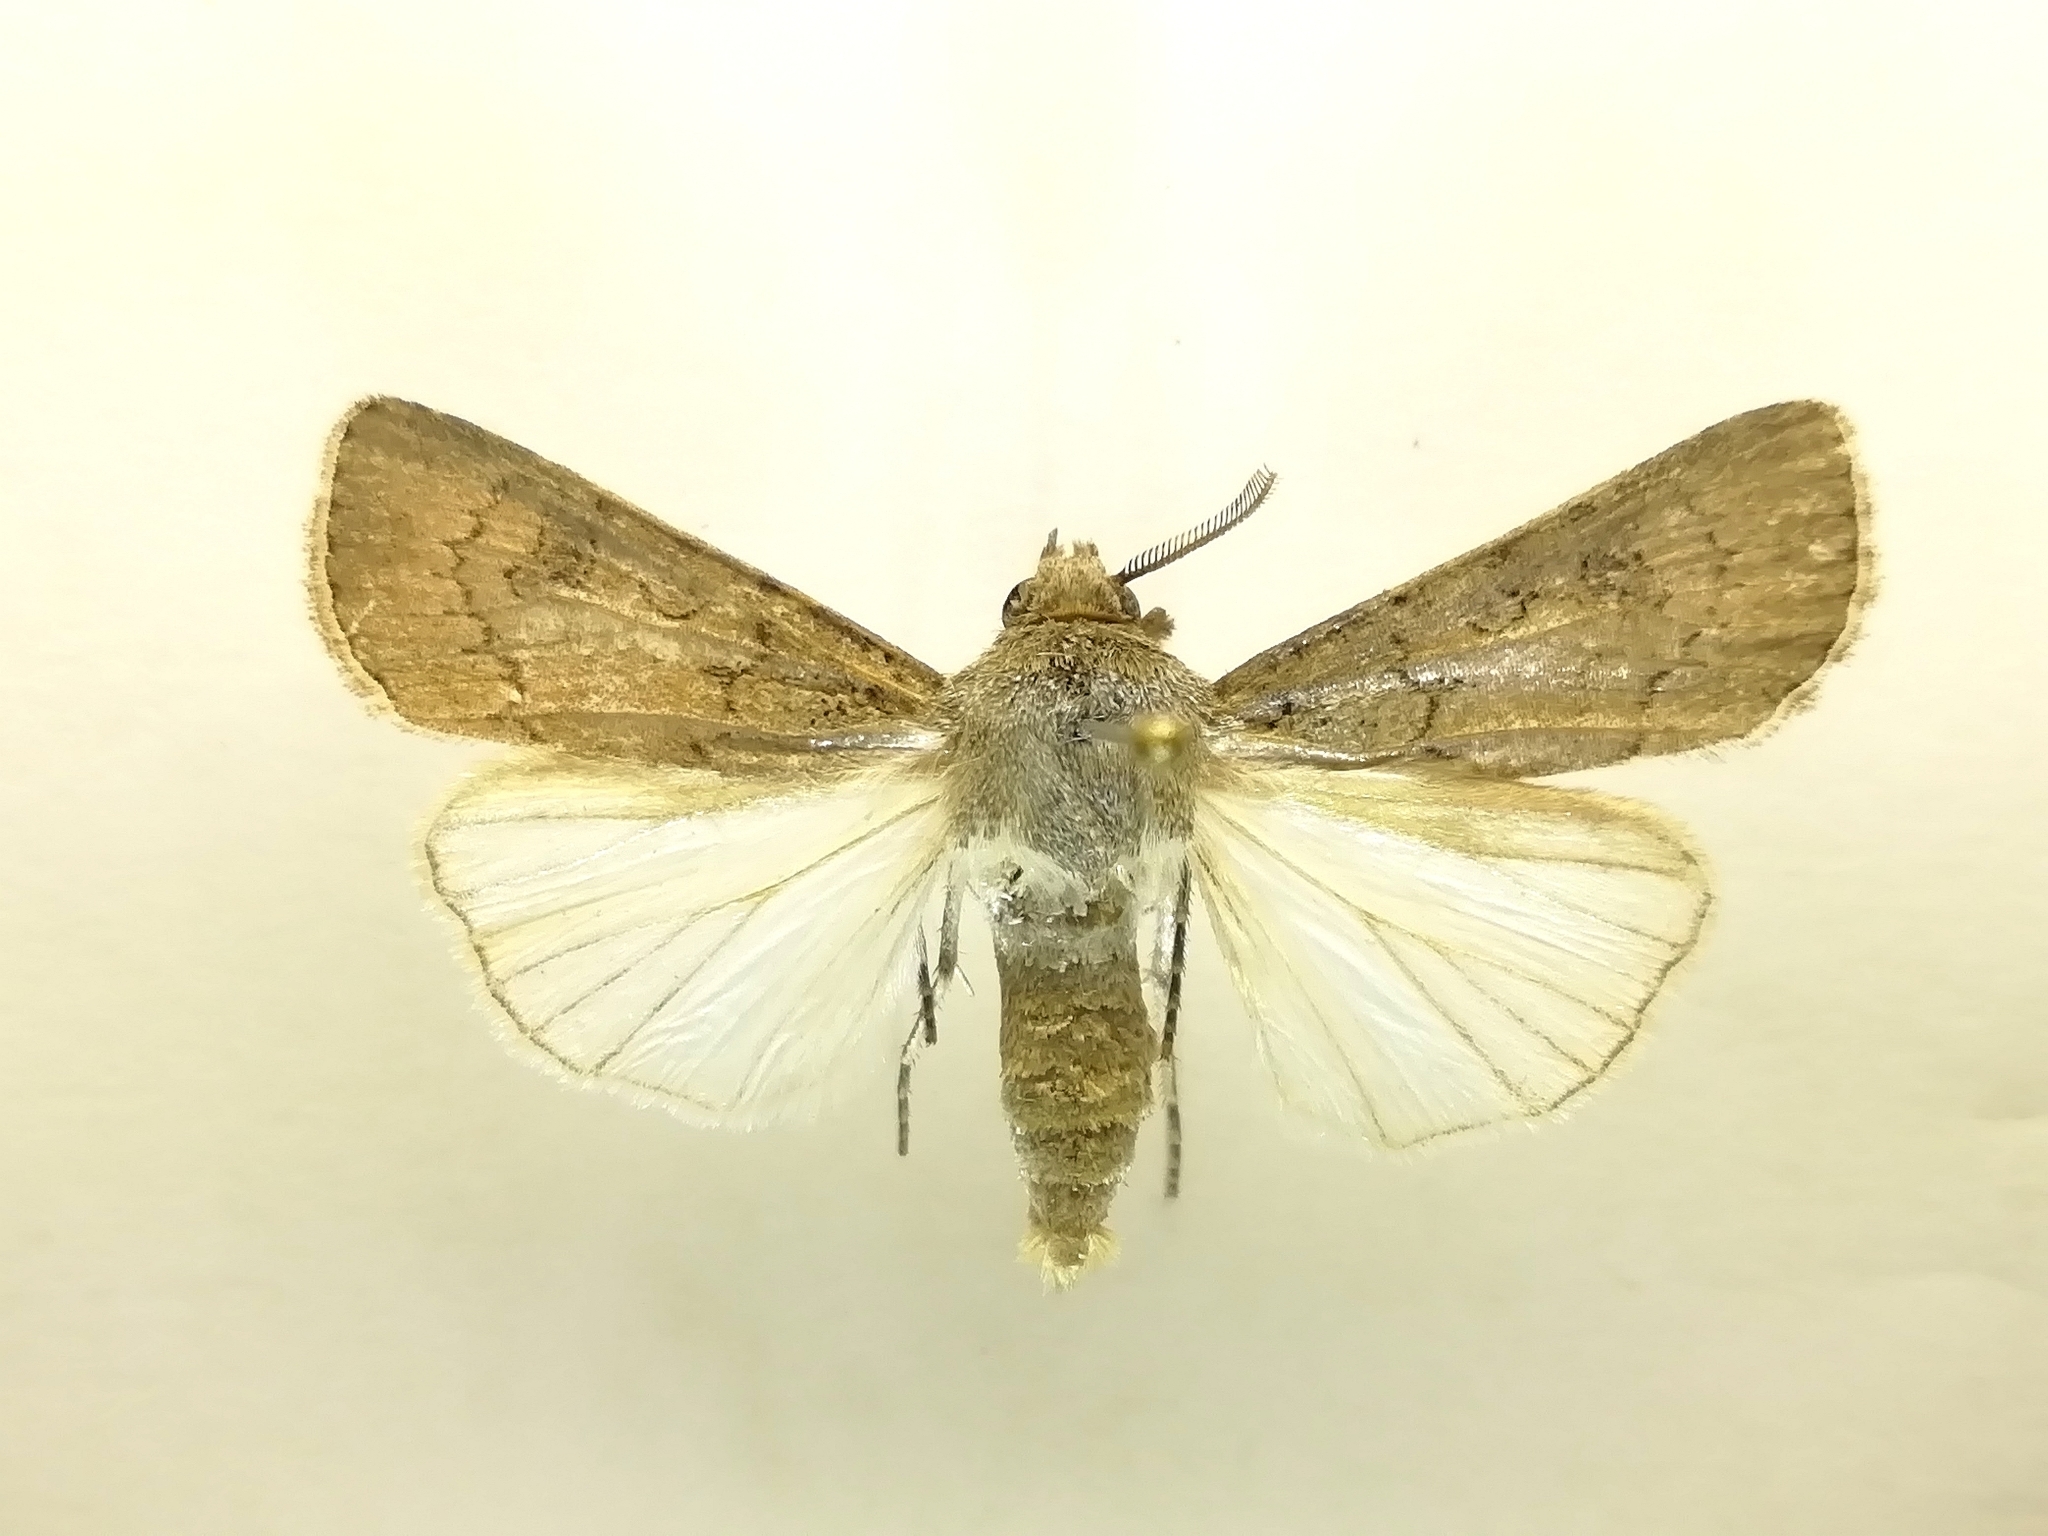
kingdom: Animalia
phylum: Arthropoda
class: Insecta
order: Lepidoptera
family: Noctuidae
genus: Agrotis
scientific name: Agrotis segetum
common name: Turnip moth
